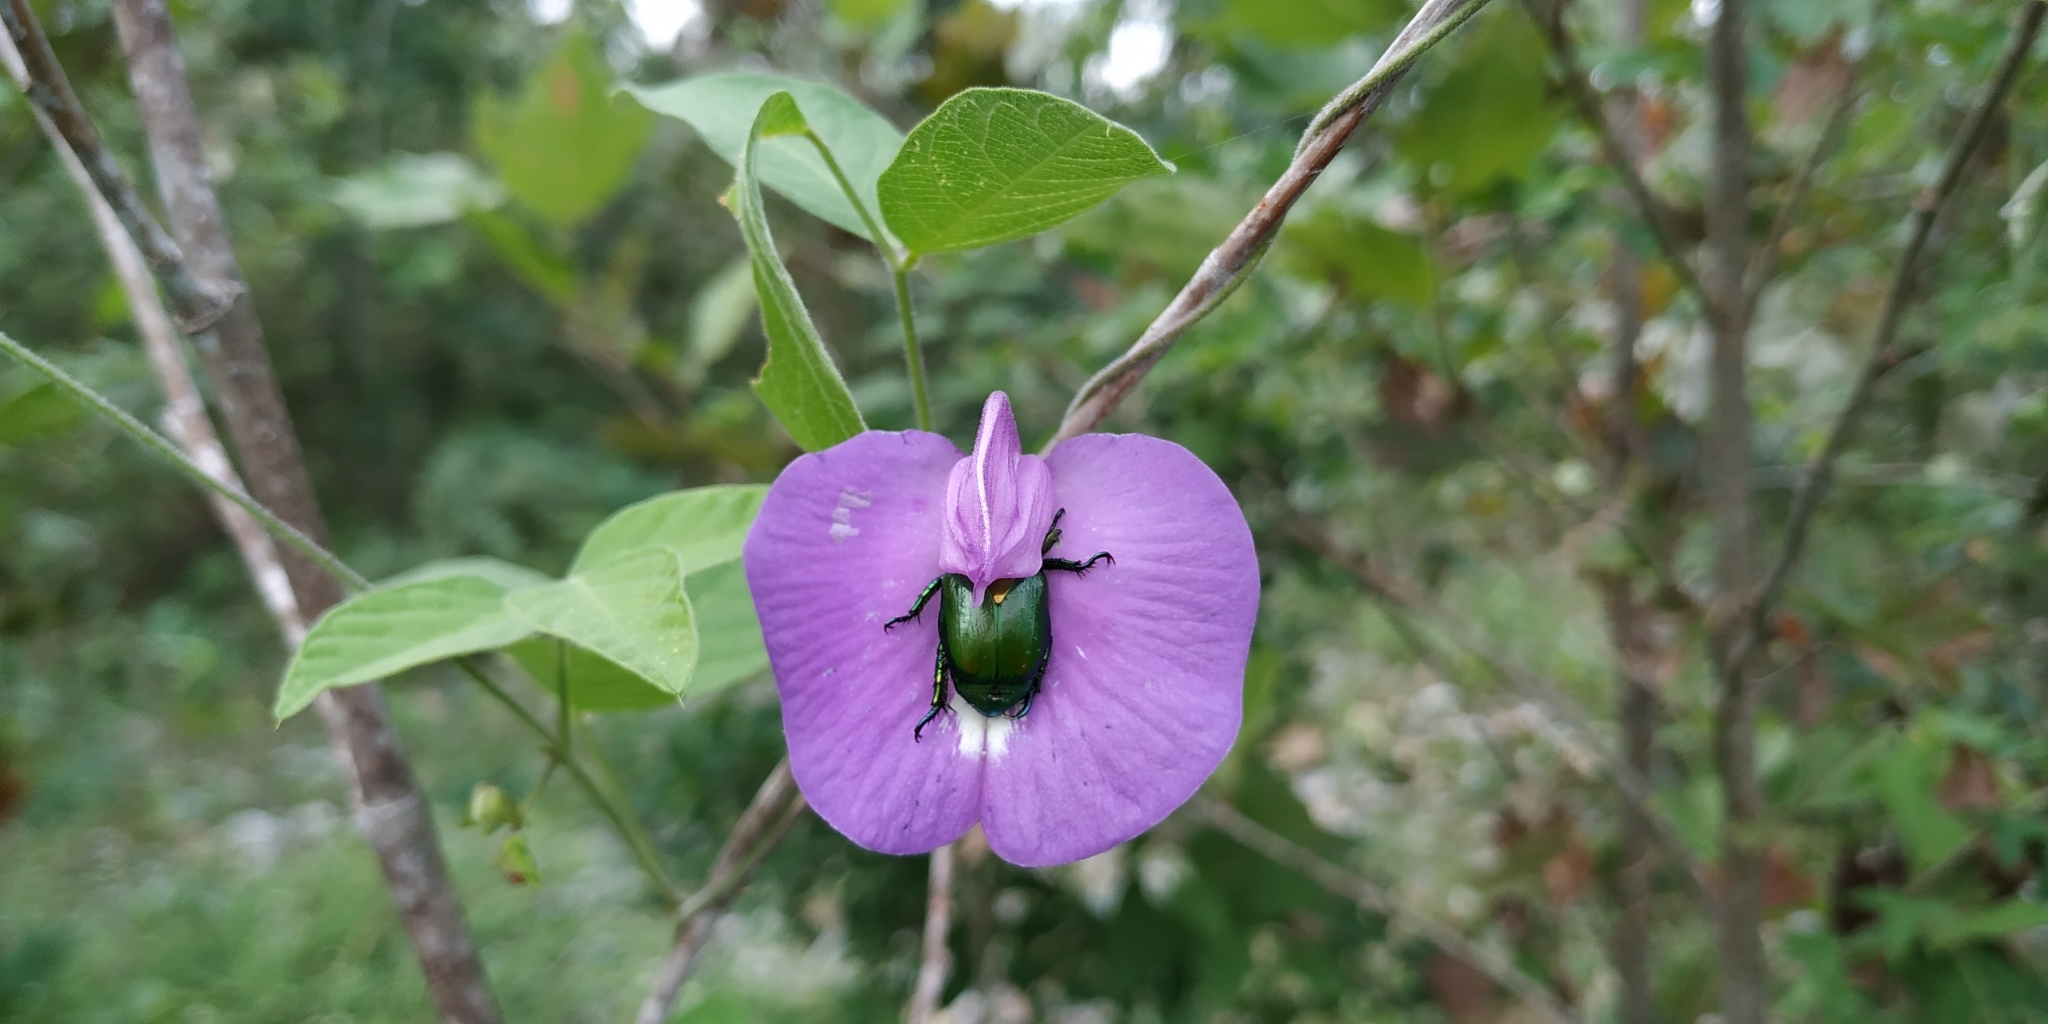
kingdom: Plantae
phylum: Tracheophyta
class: Magnoliopsida
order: Fabales
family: Fabaceae
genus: Centrosema
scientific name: Centrosema virginianum
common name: Butterfly-pea
